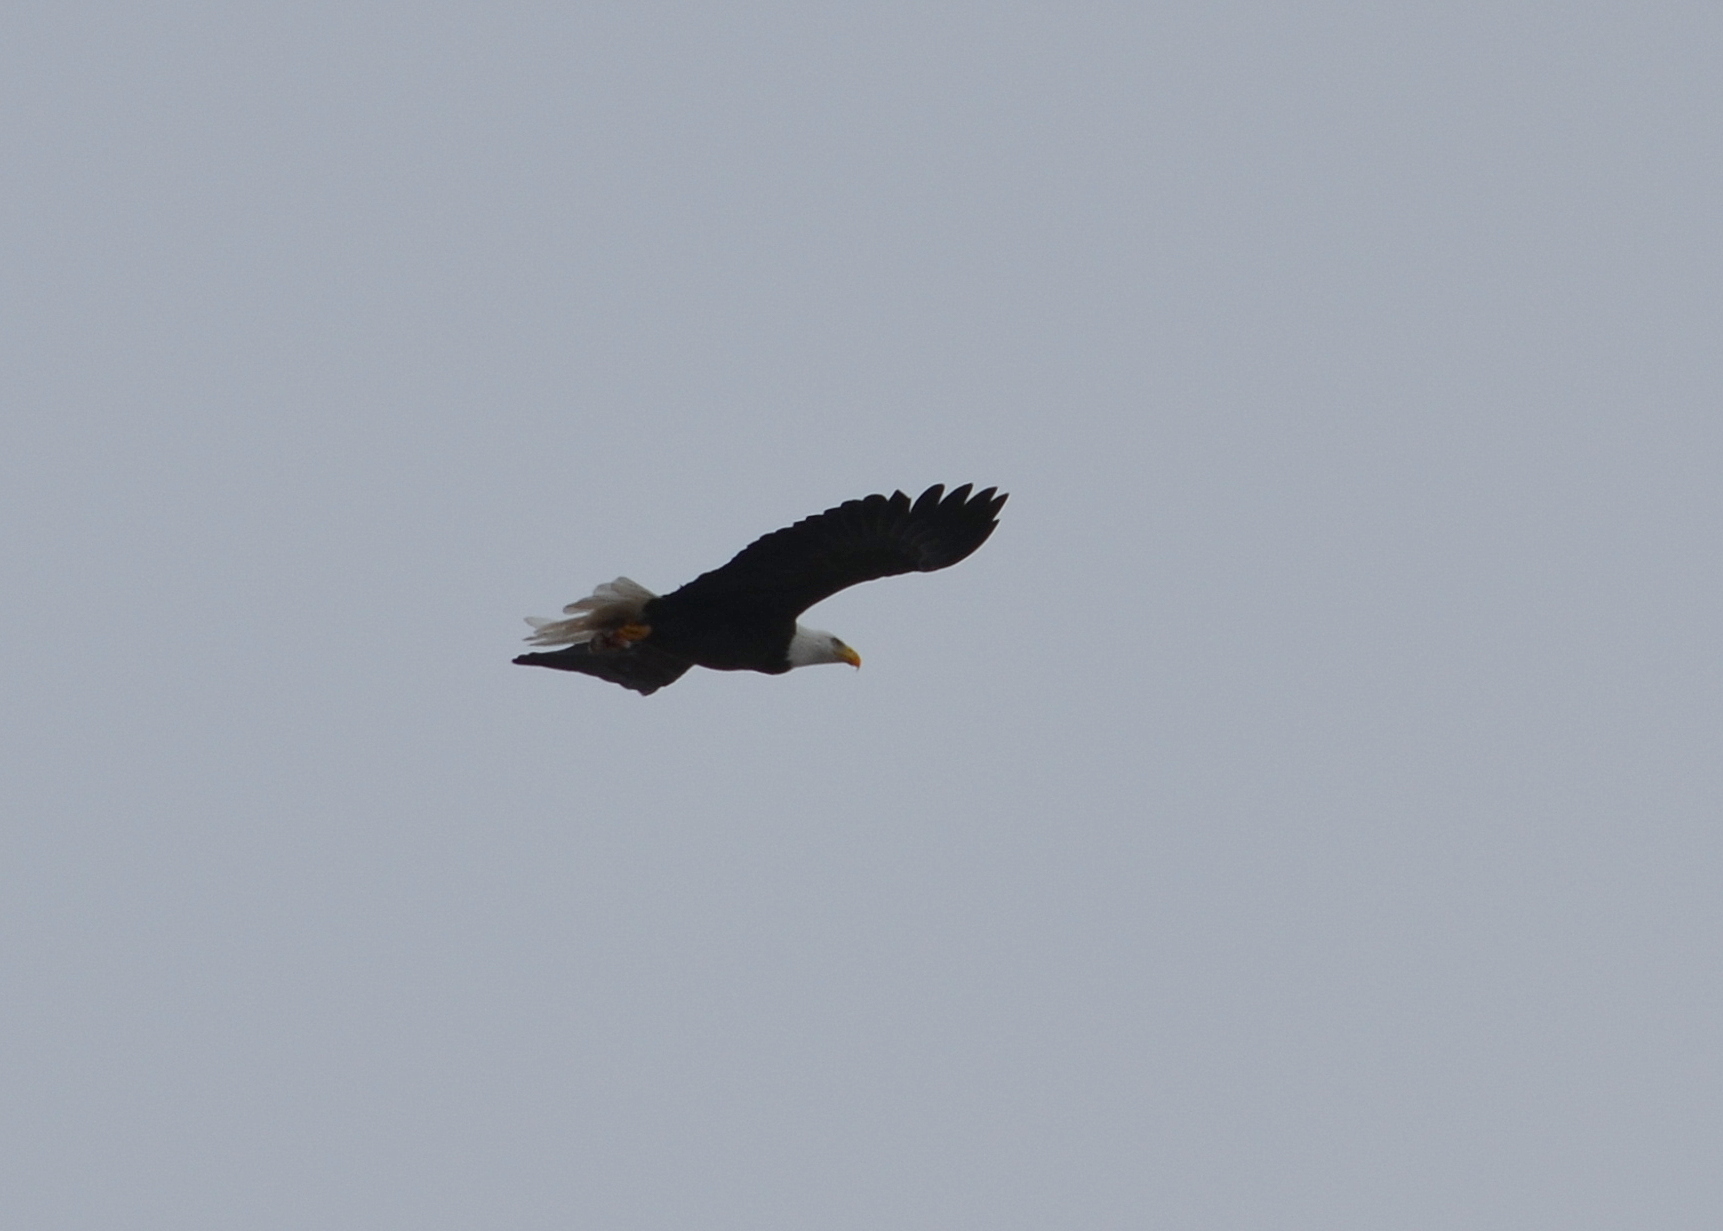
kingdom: Animalia
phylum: Chordata
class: Aves
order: Accipitriformes
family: Accipitridae
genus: Haliaeetus
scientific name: Haliaeetus leucocephalus
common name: Bald eagle
